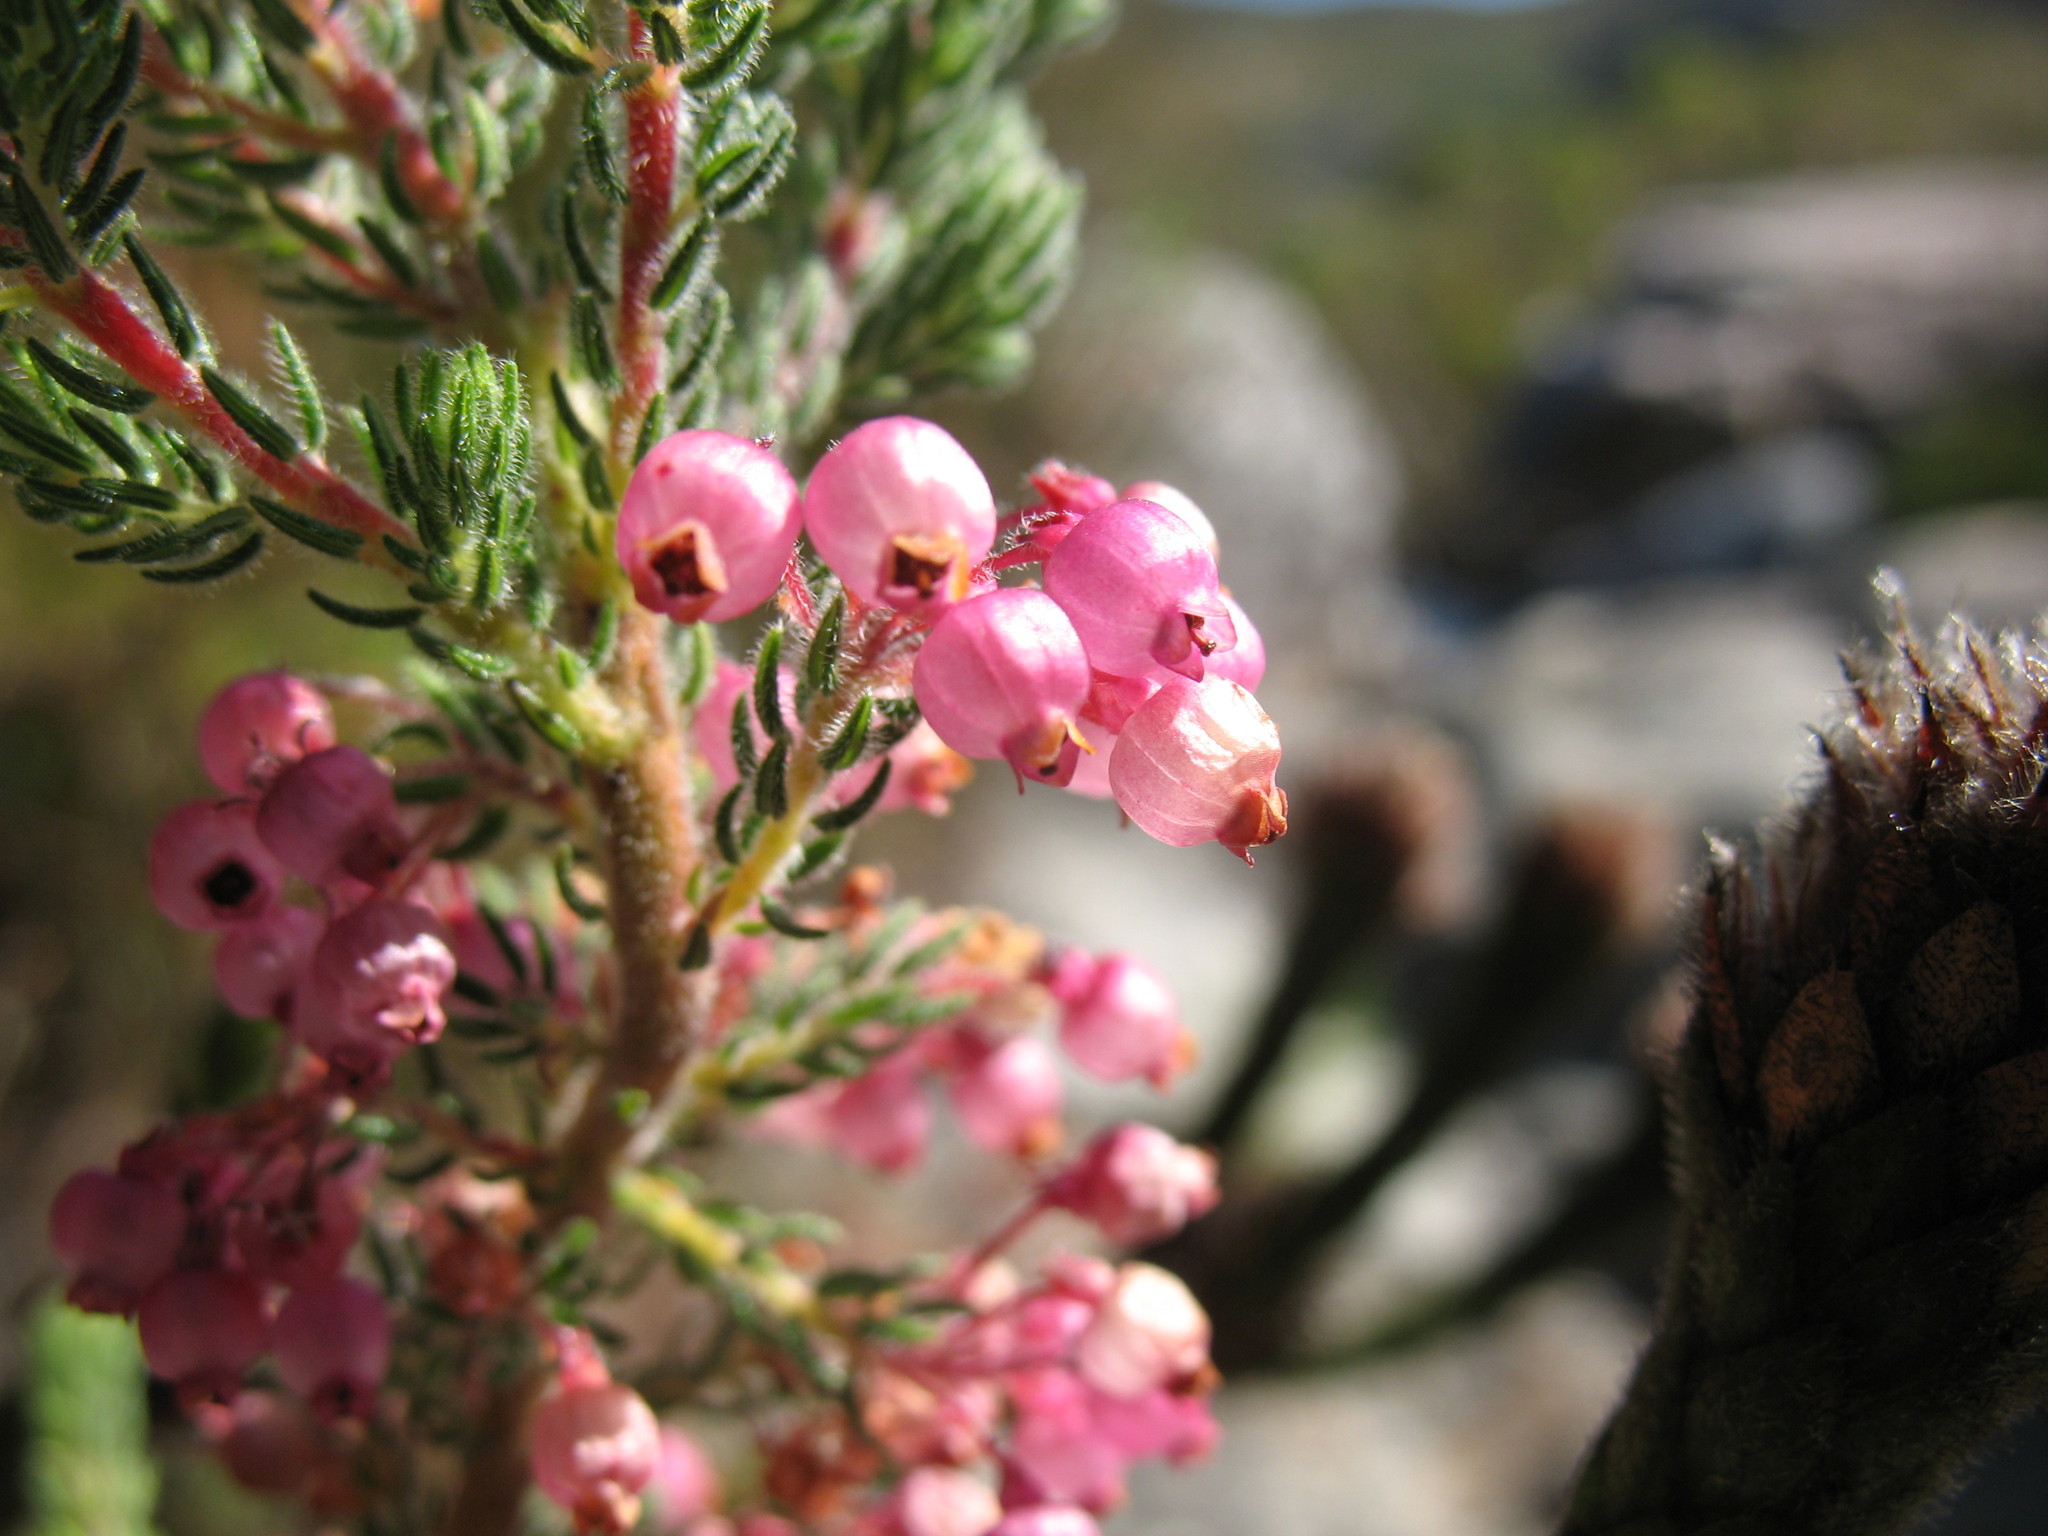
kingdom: Plantae
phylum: Tracheophyta
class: Magnoliopsida
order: Ericales
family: Ericaceae
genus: Erica
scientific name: Erica bergiana
